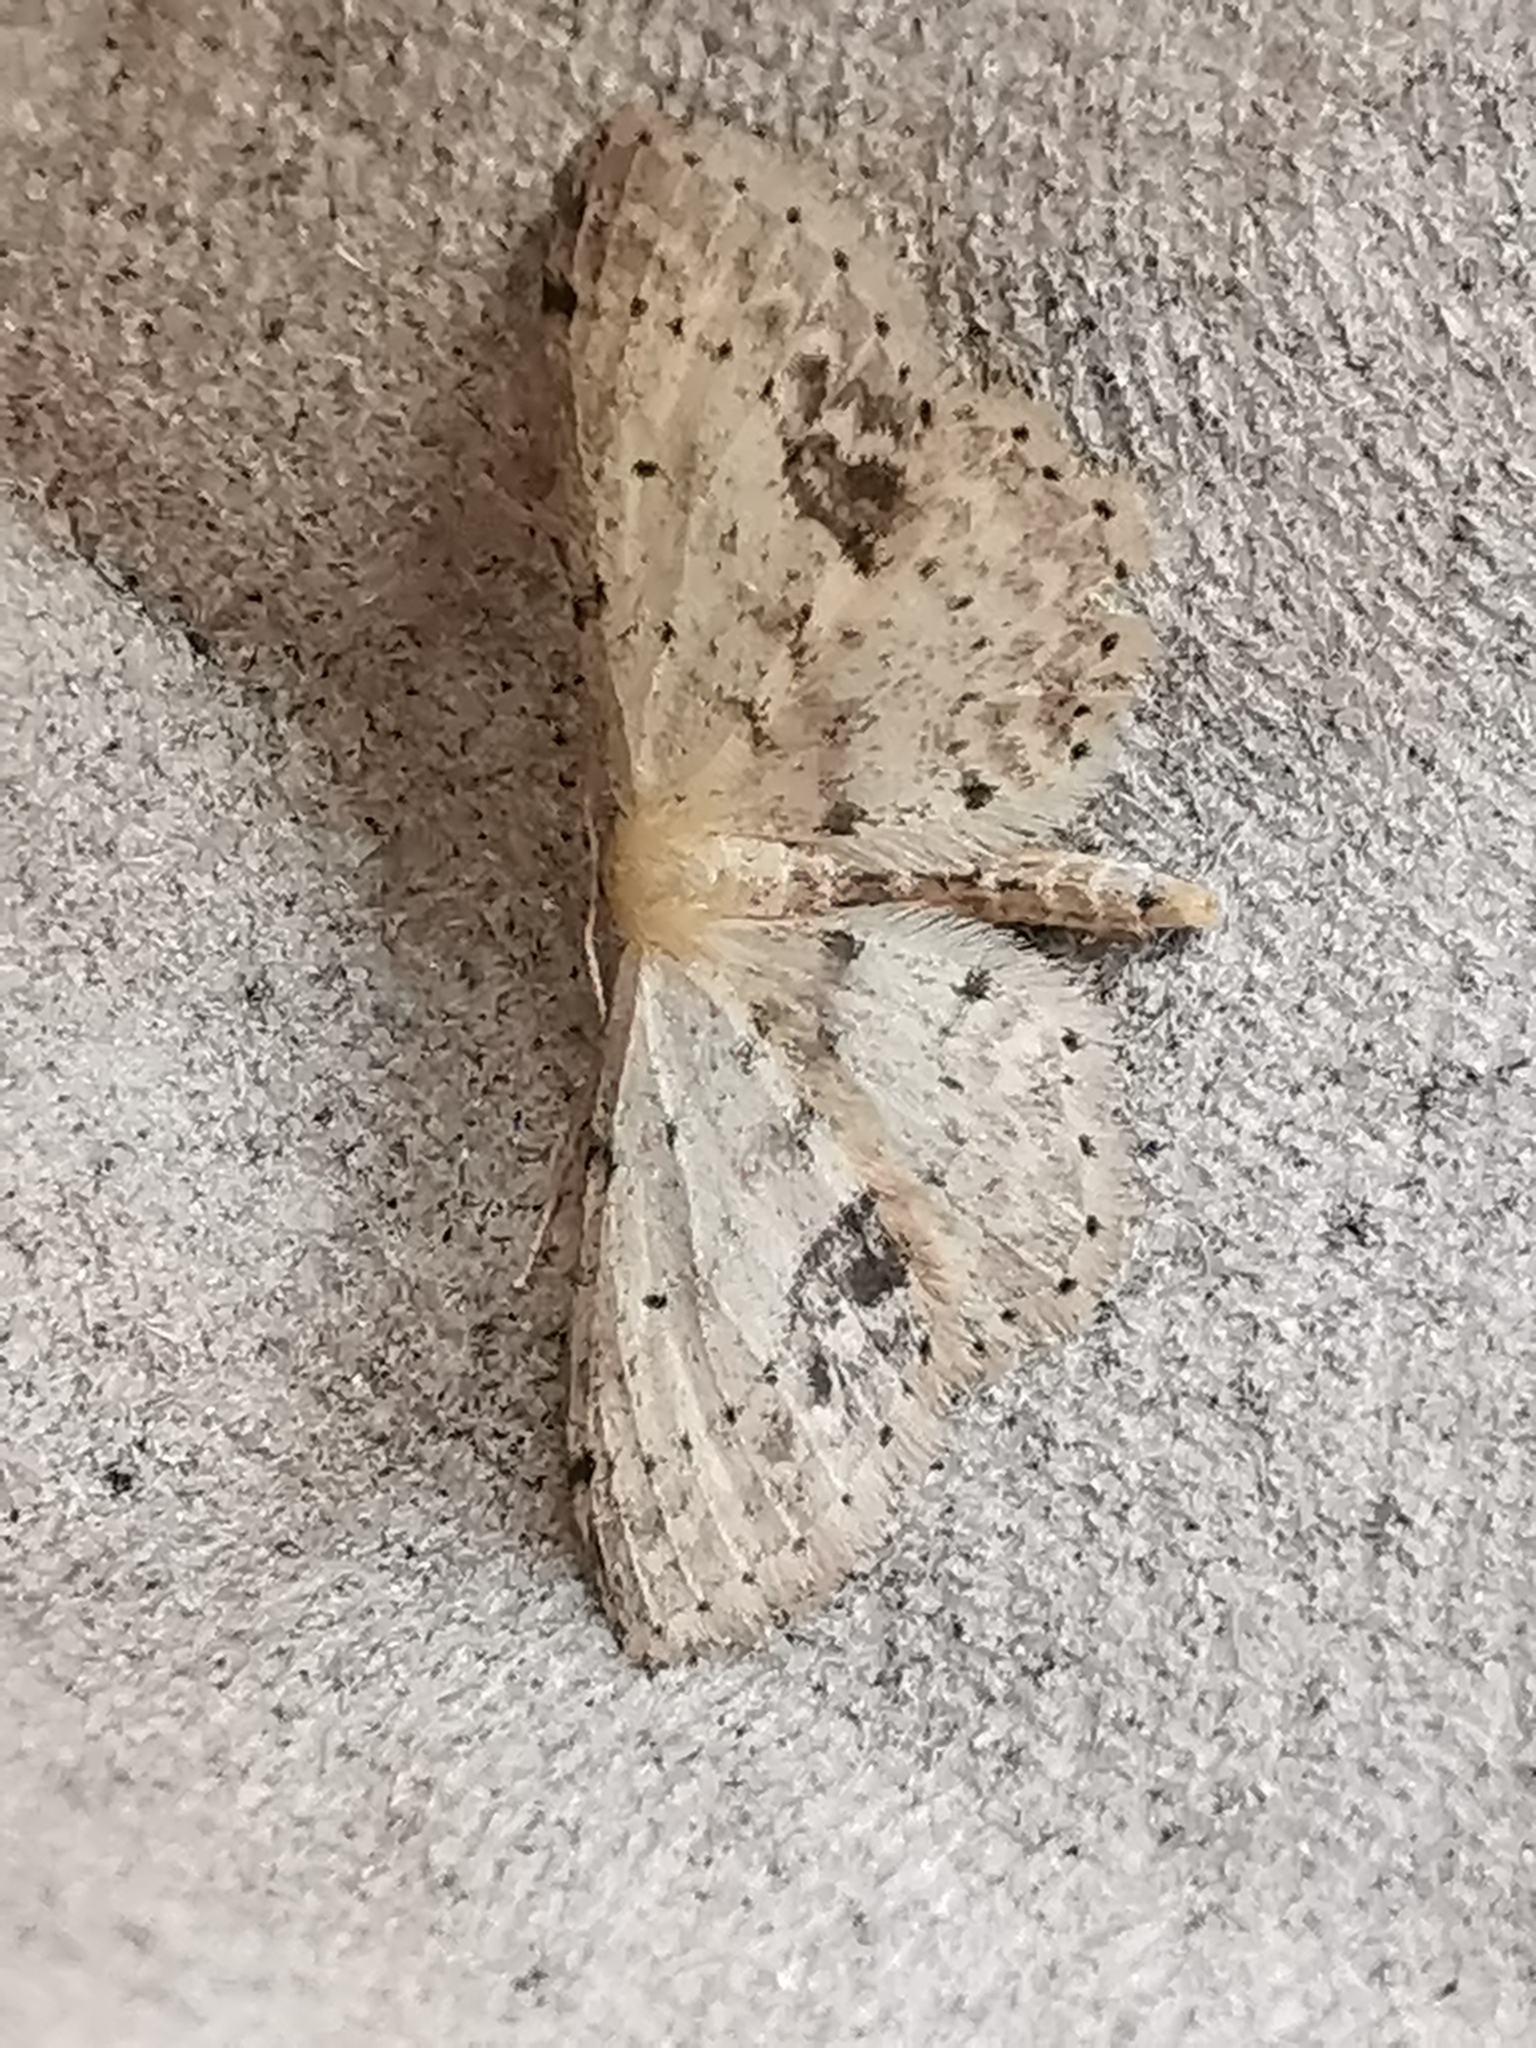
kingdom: Animalia
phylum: Arthropoda
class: Insecta
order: Lepidoptera
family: Geometridae
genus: Idaea
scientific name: Idaea dimidiata
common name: Single-dotted wave
